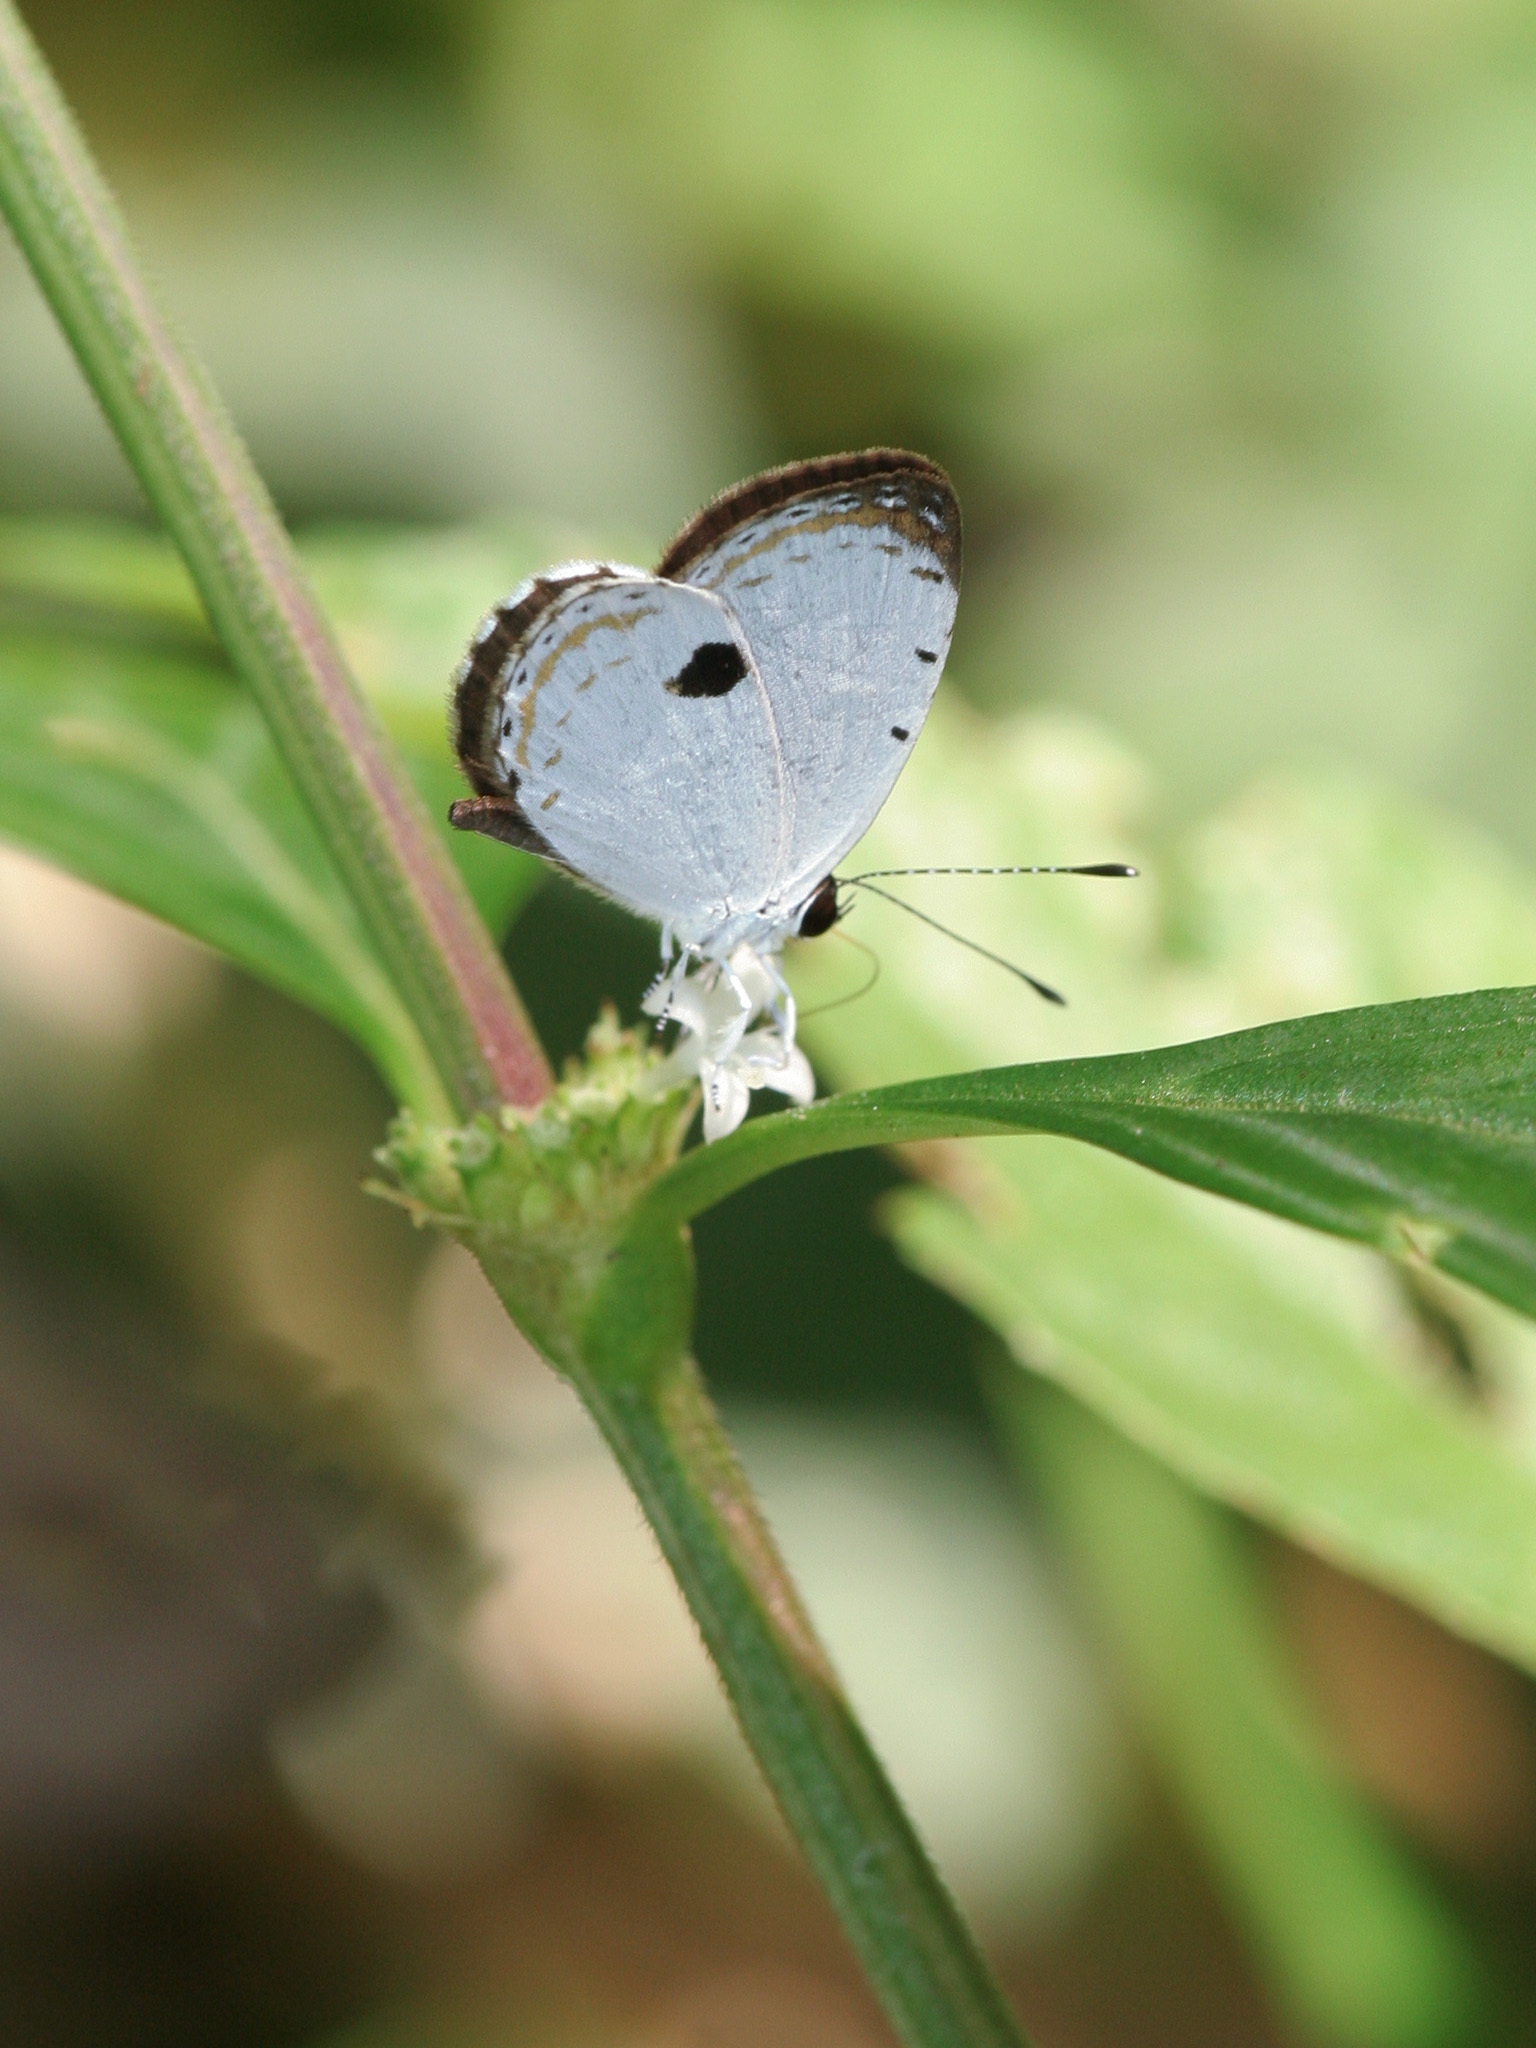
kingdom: Animalia
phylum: Arthropoda
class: Insecta
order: Lepidoptera
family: Lycaenidae
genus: Pithecops
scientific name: Pithecops corvus
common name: Forest quaker
